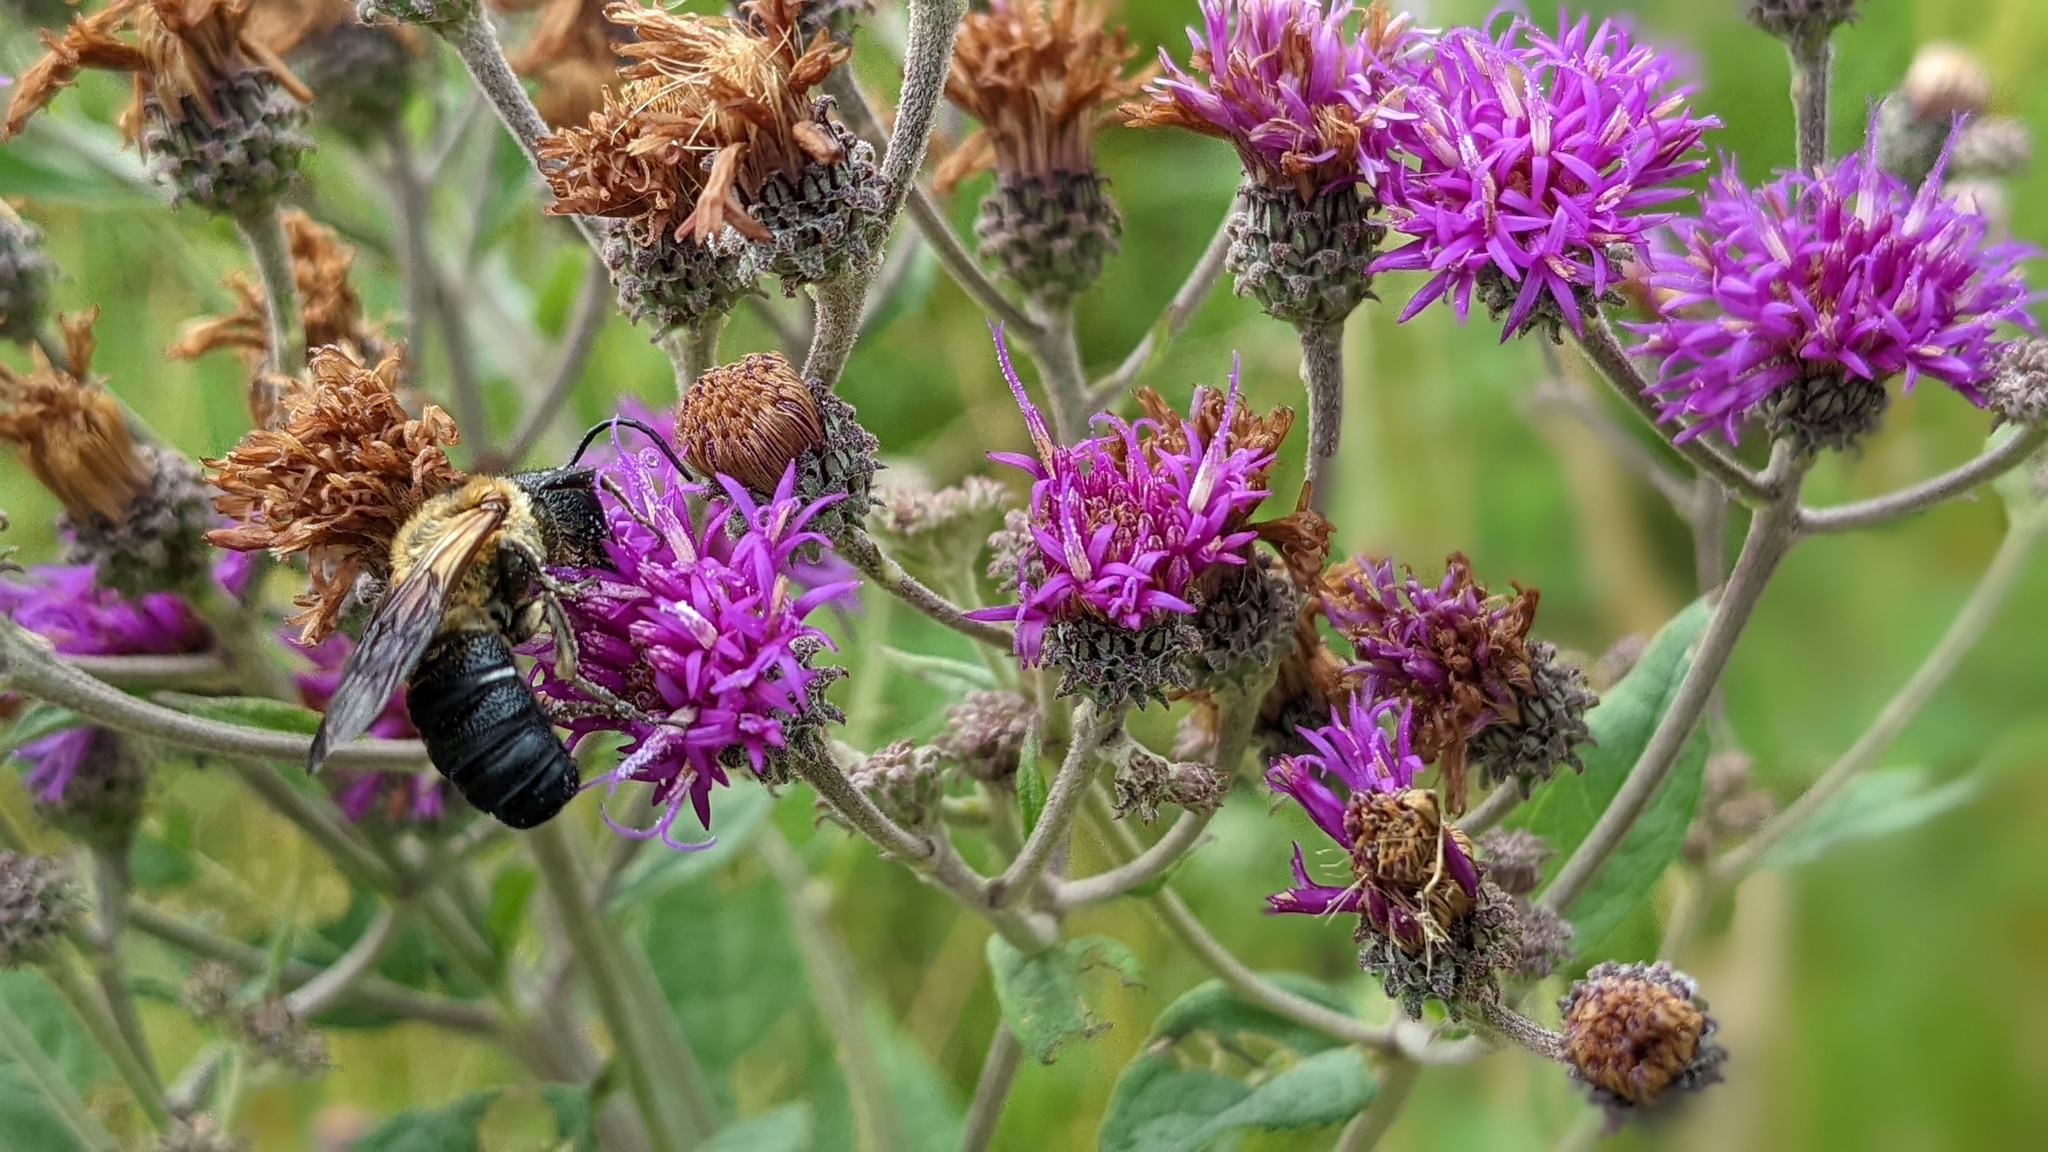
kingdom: Animalia
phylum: Arthropoda
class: Insecta
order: Hymenoptera
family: Megachilidae
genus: Megachile
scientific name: Megachile sculpturalis
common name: Sculptured resin bee
